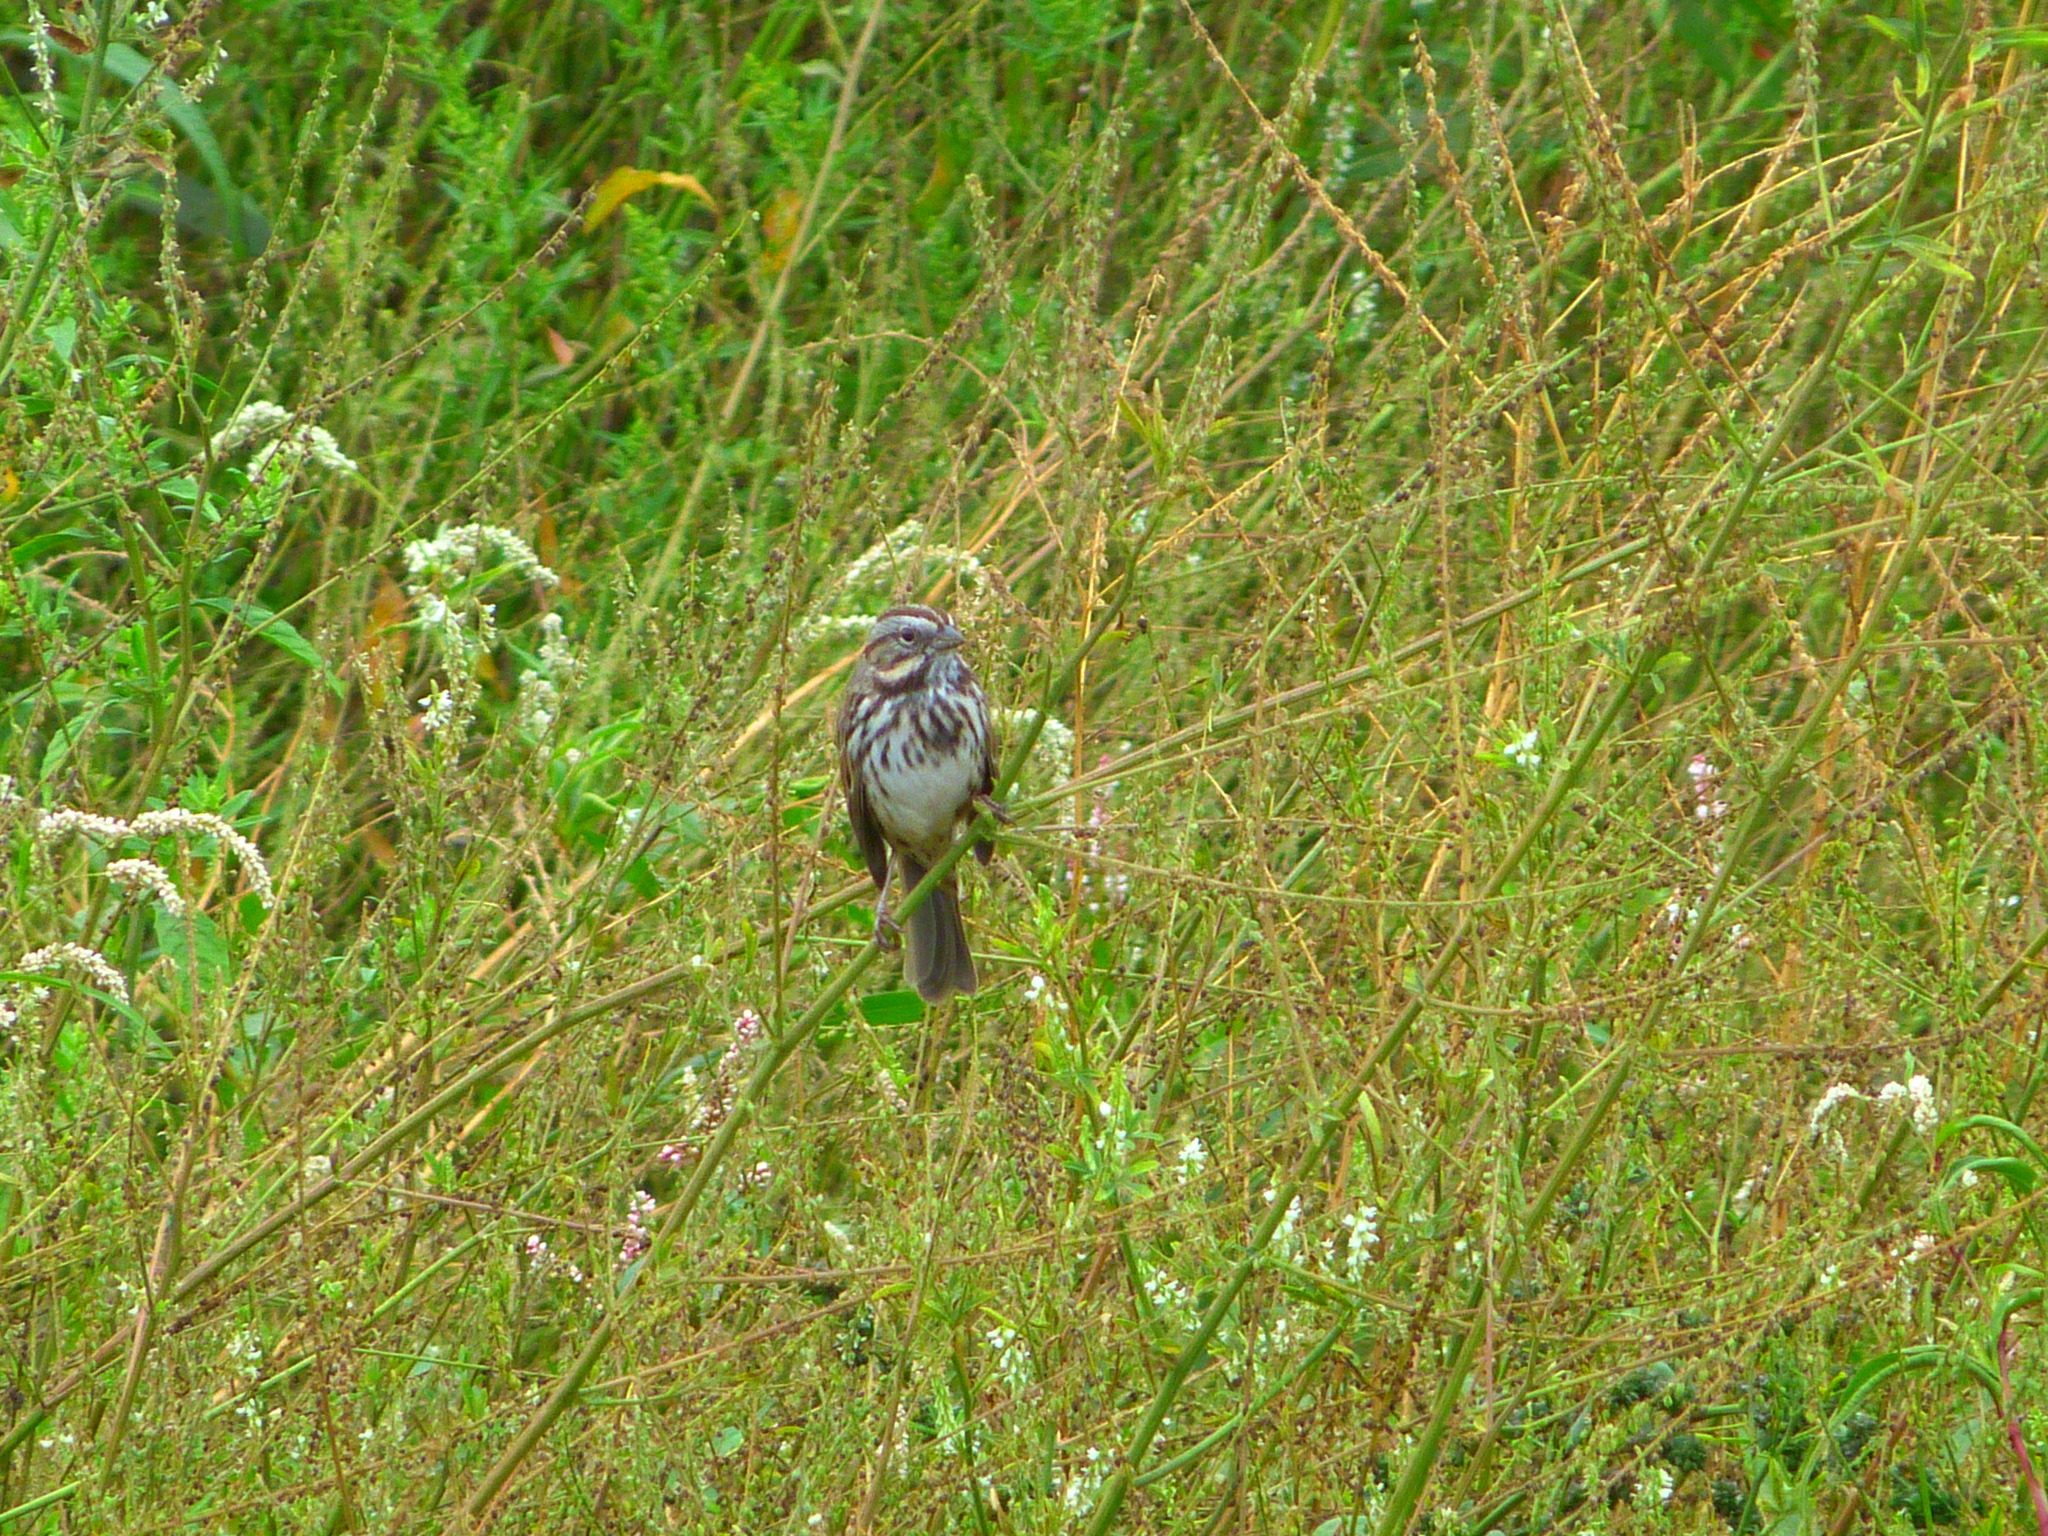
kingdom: Animalia
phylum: Chordata
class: Aves
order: Passeriformes
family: Passerellidae
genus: Melospiza
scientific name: Melospiza melodia
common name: Song sparrow
